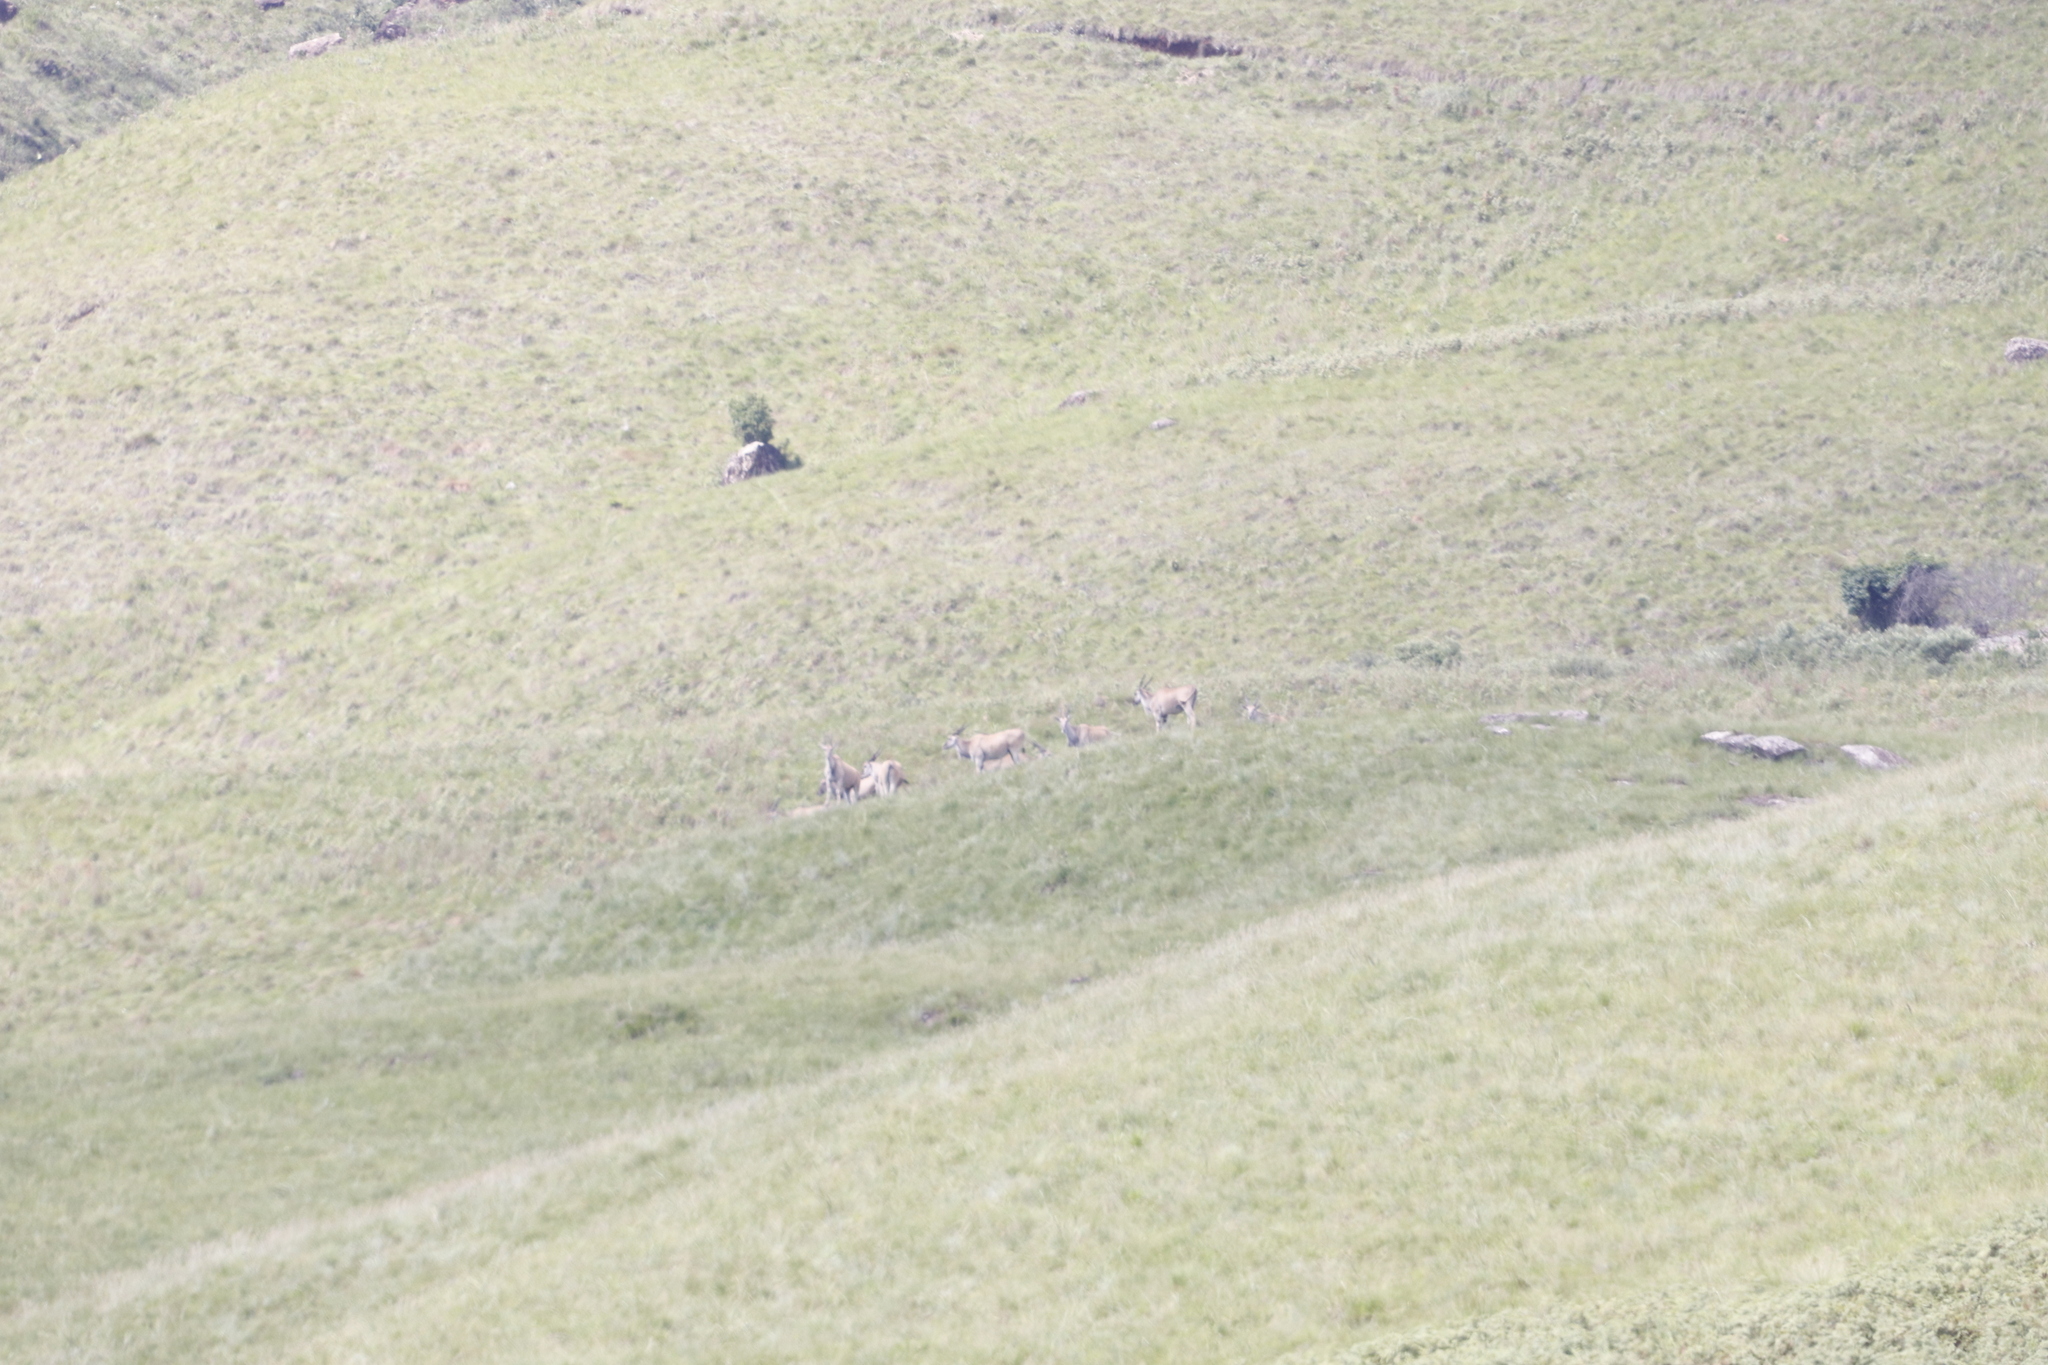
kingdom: Animalia
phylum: Chordata
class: Mammalia
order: Artiodactyla
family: Bovidae
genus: Taurotragus
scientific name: Taurotragus oryx
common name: Common eland
